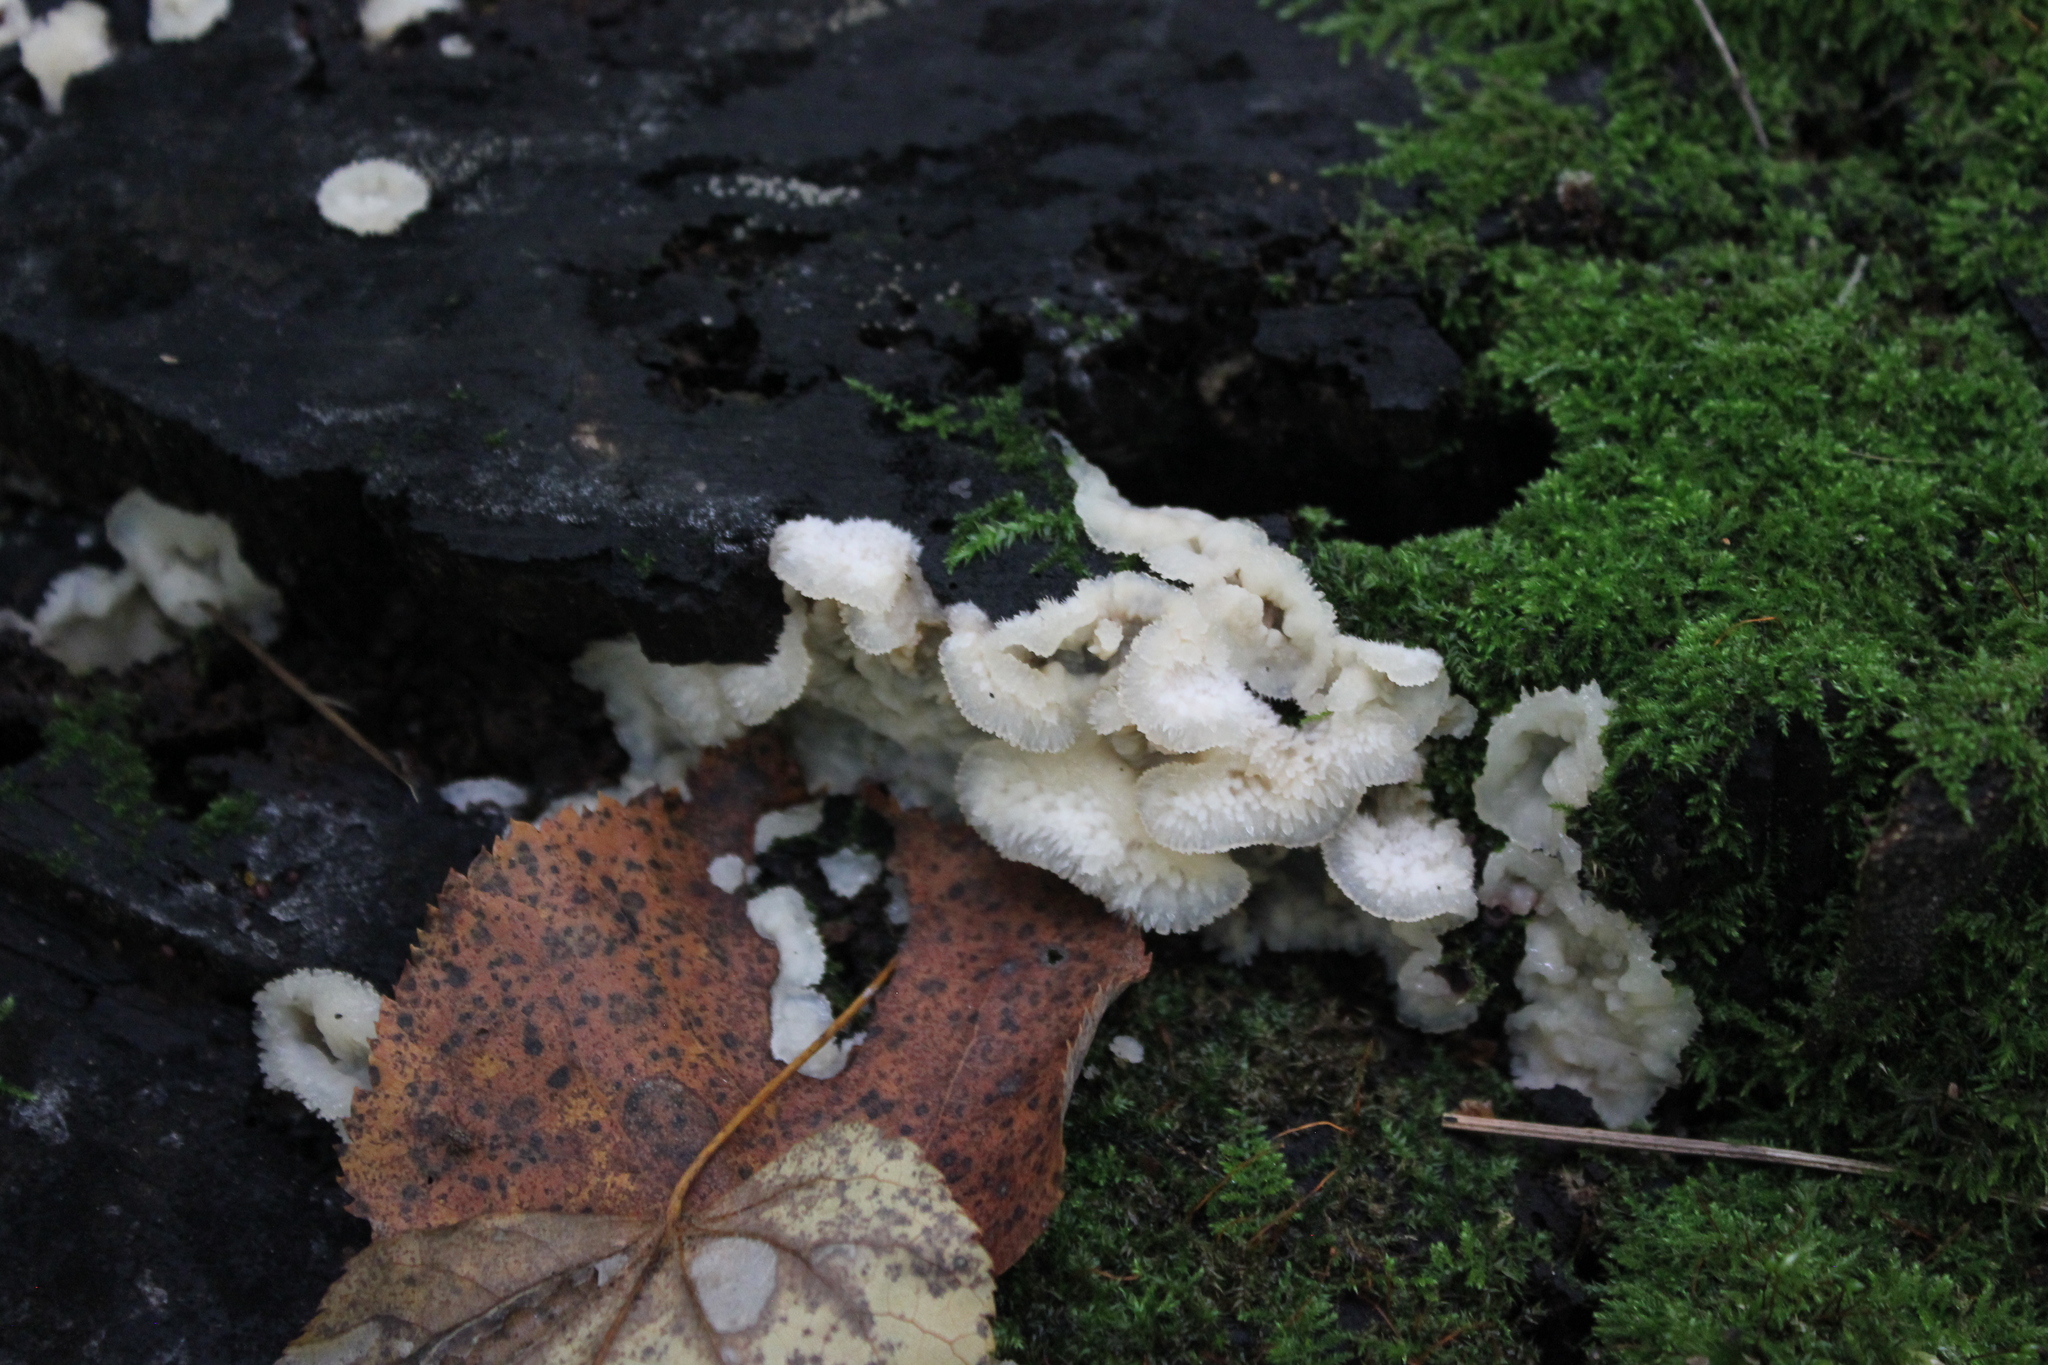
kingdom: Fungi
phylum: Basidiomycota
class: Agaricomycetes
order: Polyporales
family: Meruliaceae
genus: Phlebia
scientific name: Phlebia tremellosa
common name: Jelly rot
